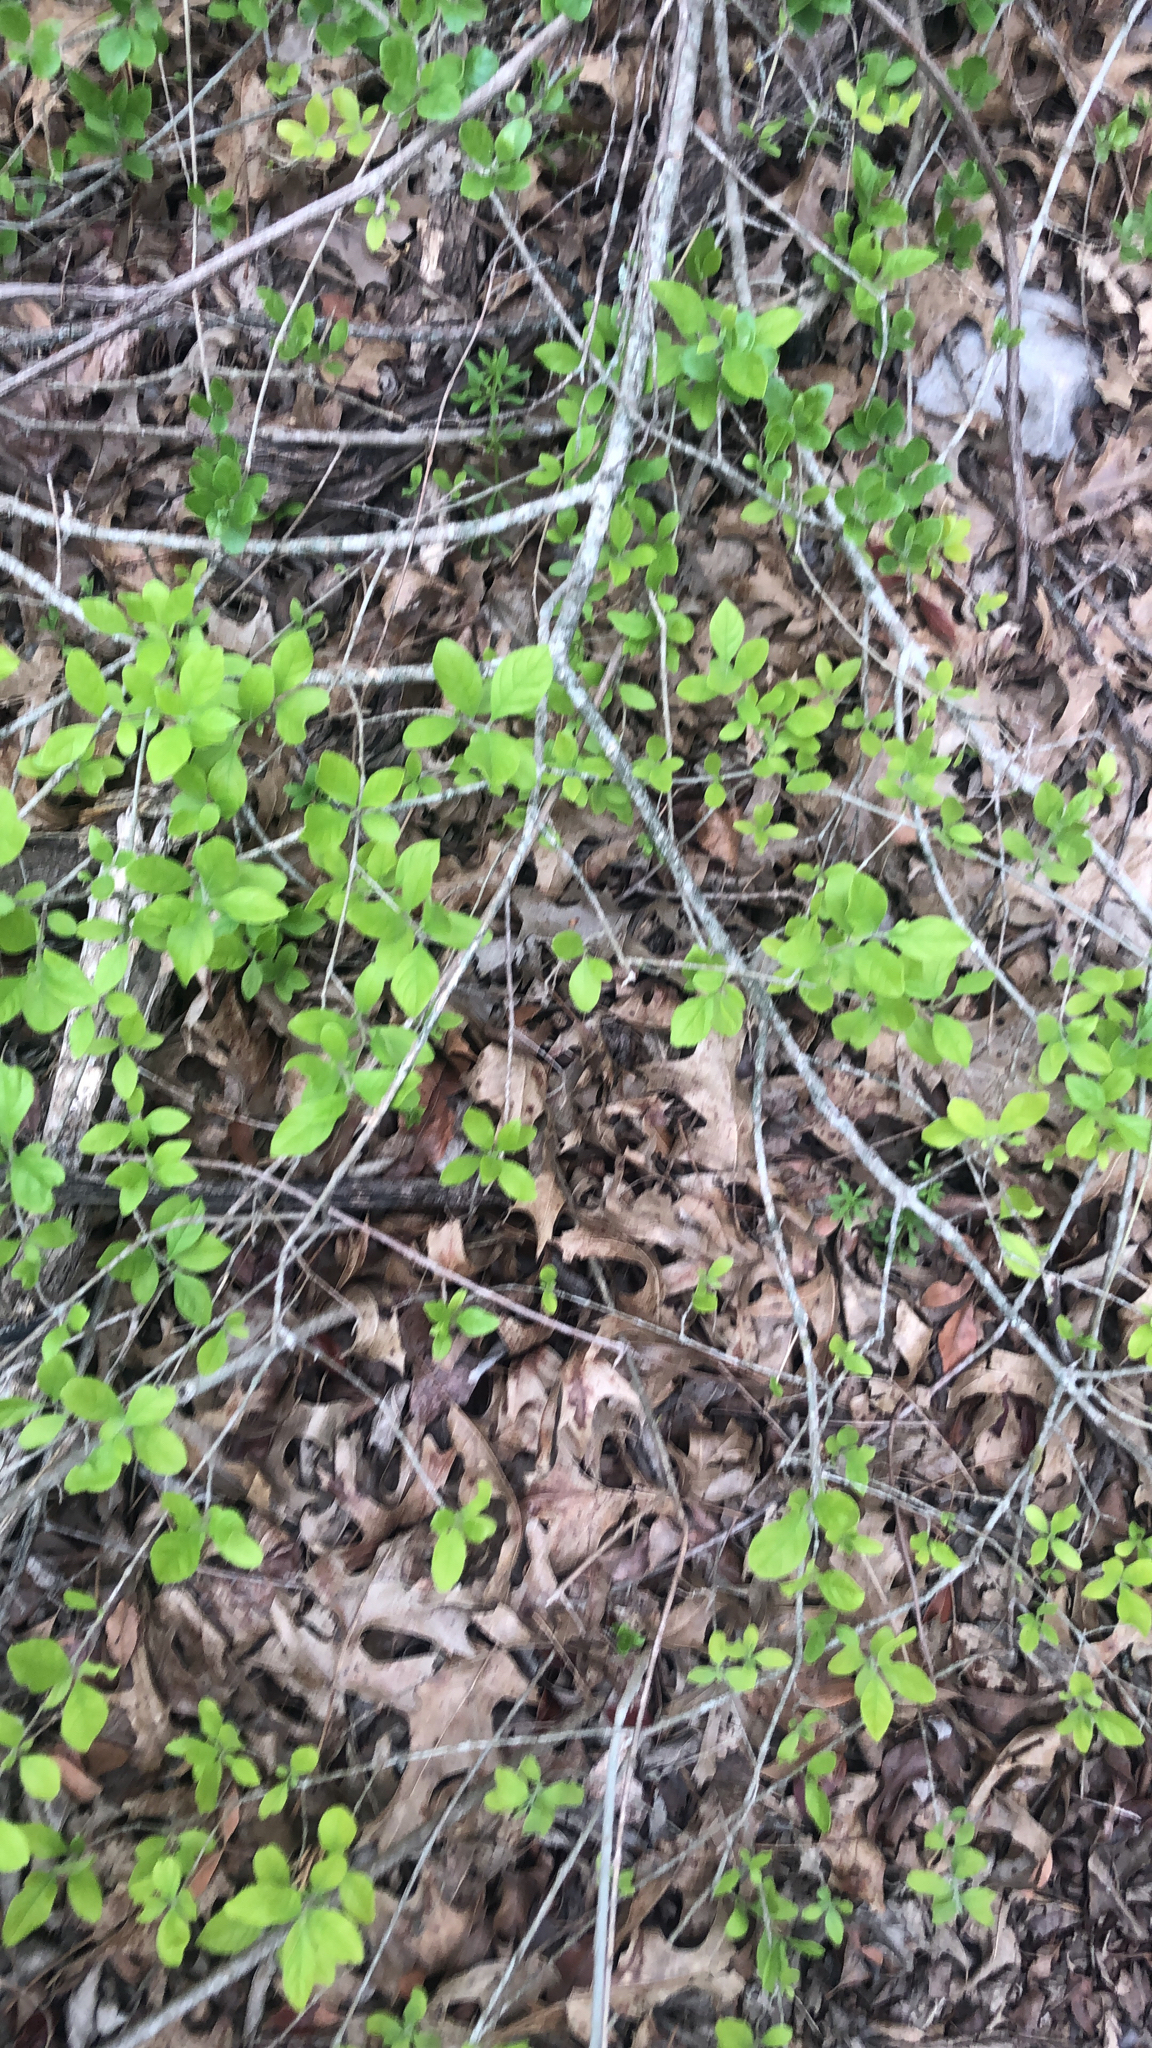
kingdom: Plantae
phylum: Tracheophyta
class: Magnoliopsida
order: Lamiales
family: Oleaceae
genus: Forestiera
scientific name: Forestiera pubescens
